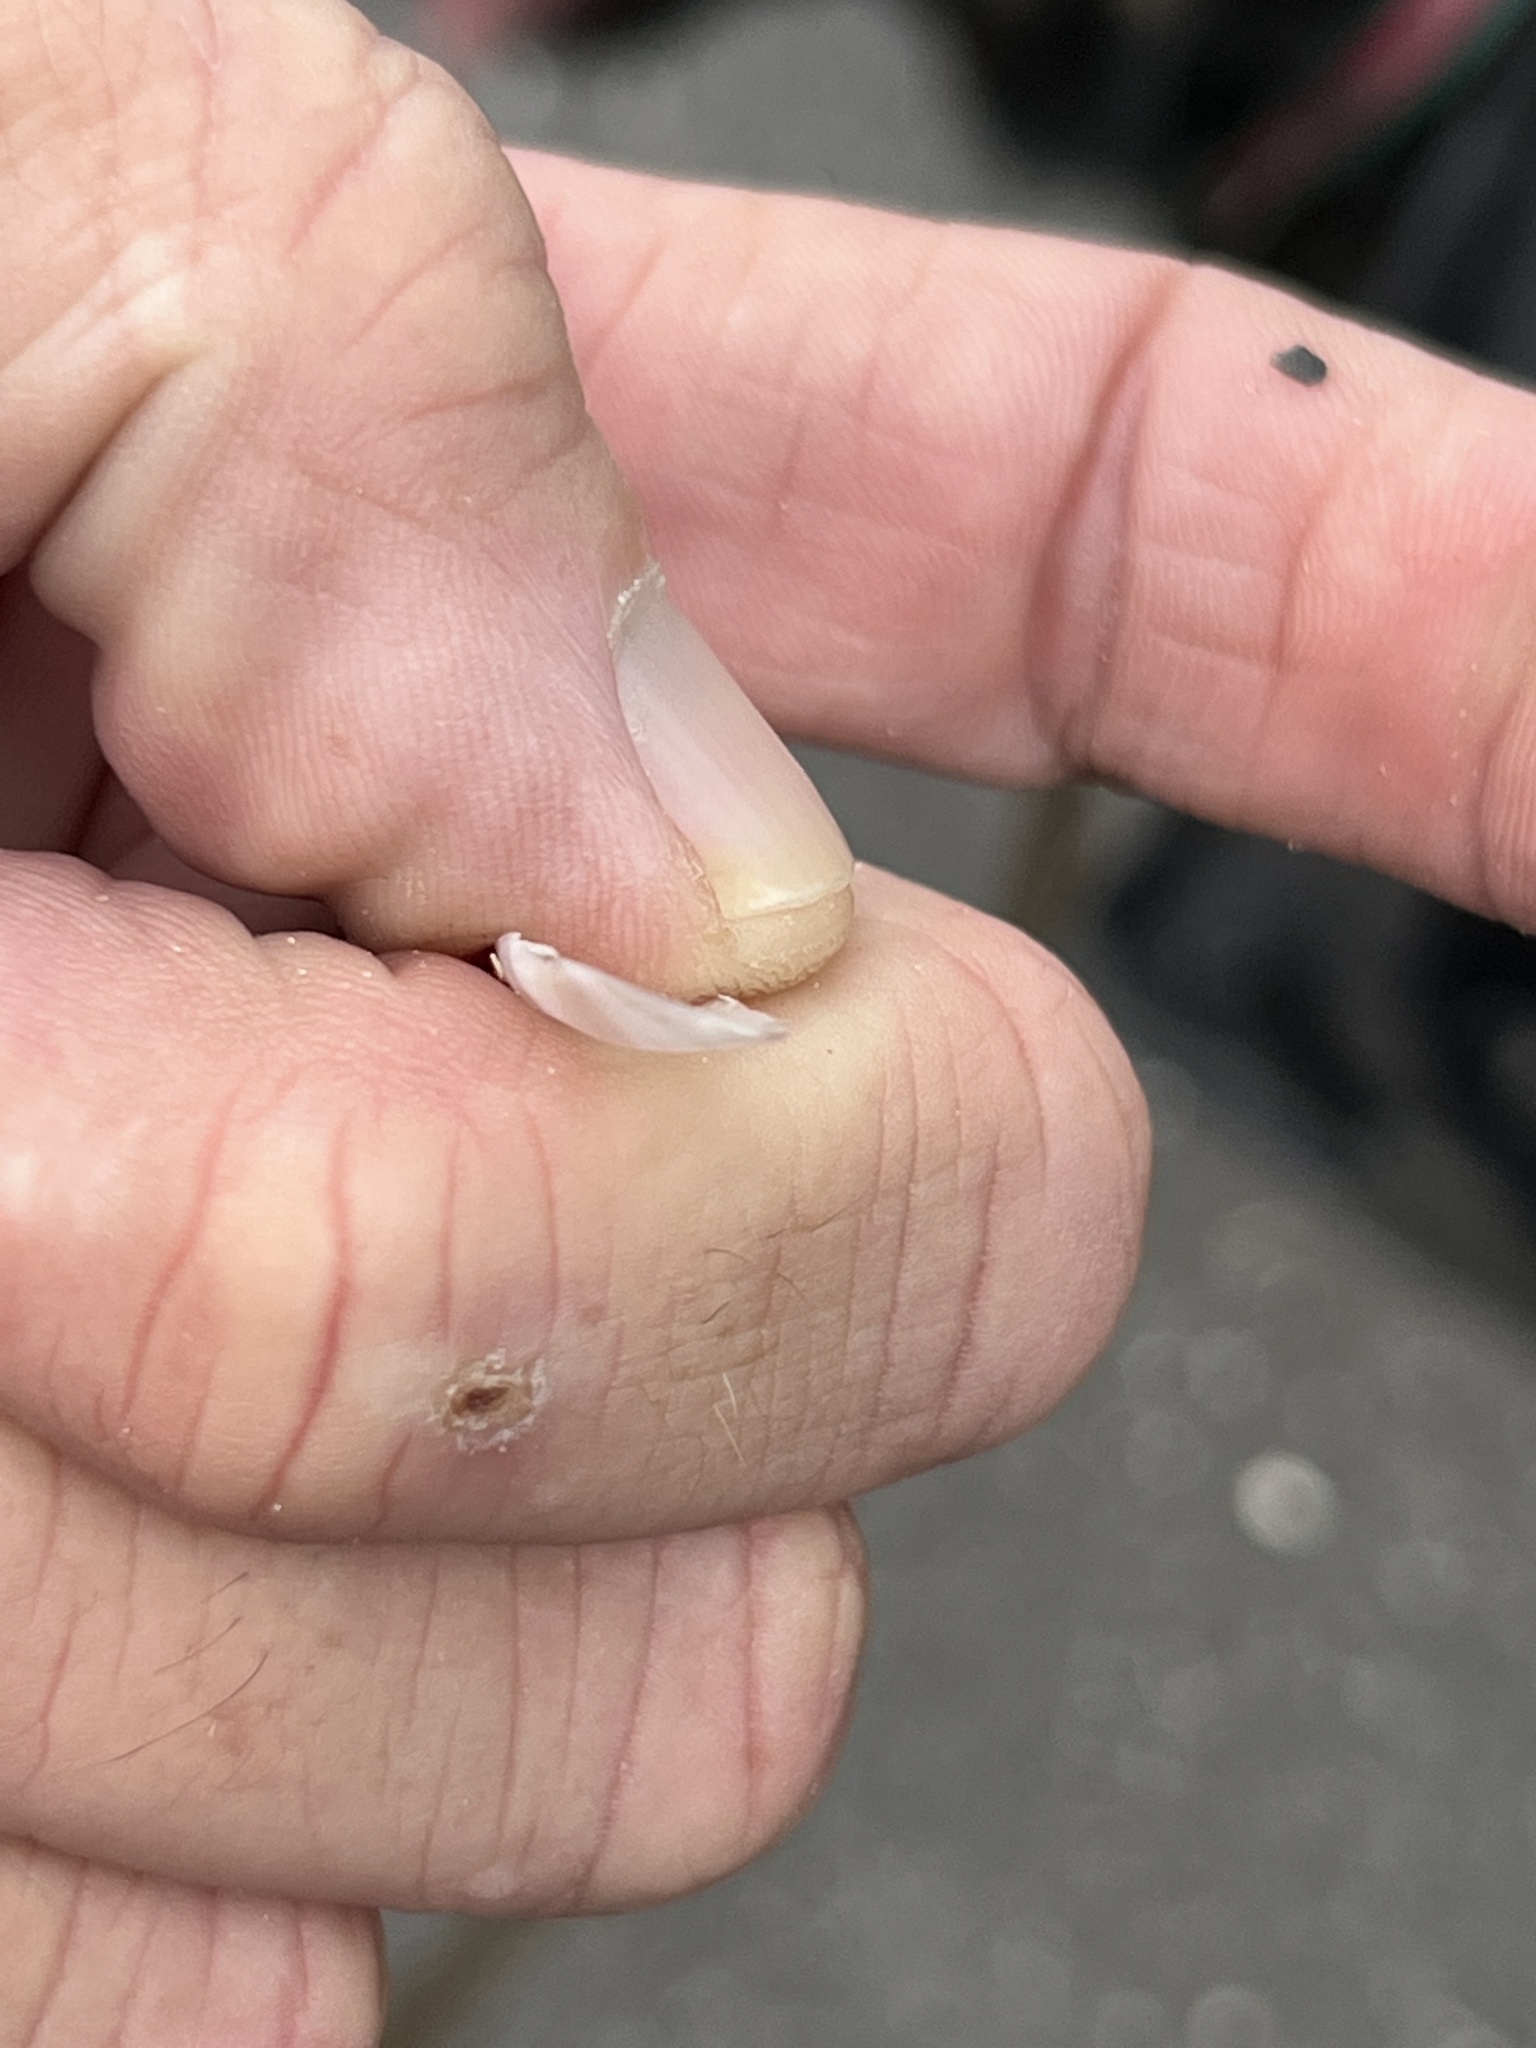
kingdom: Animalia
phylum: Mollusca
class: Bivalvia
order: Cardiida
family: Solecurtidae
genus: Tagelus
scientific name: Tagelus divisus
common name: Purplish tagelus
